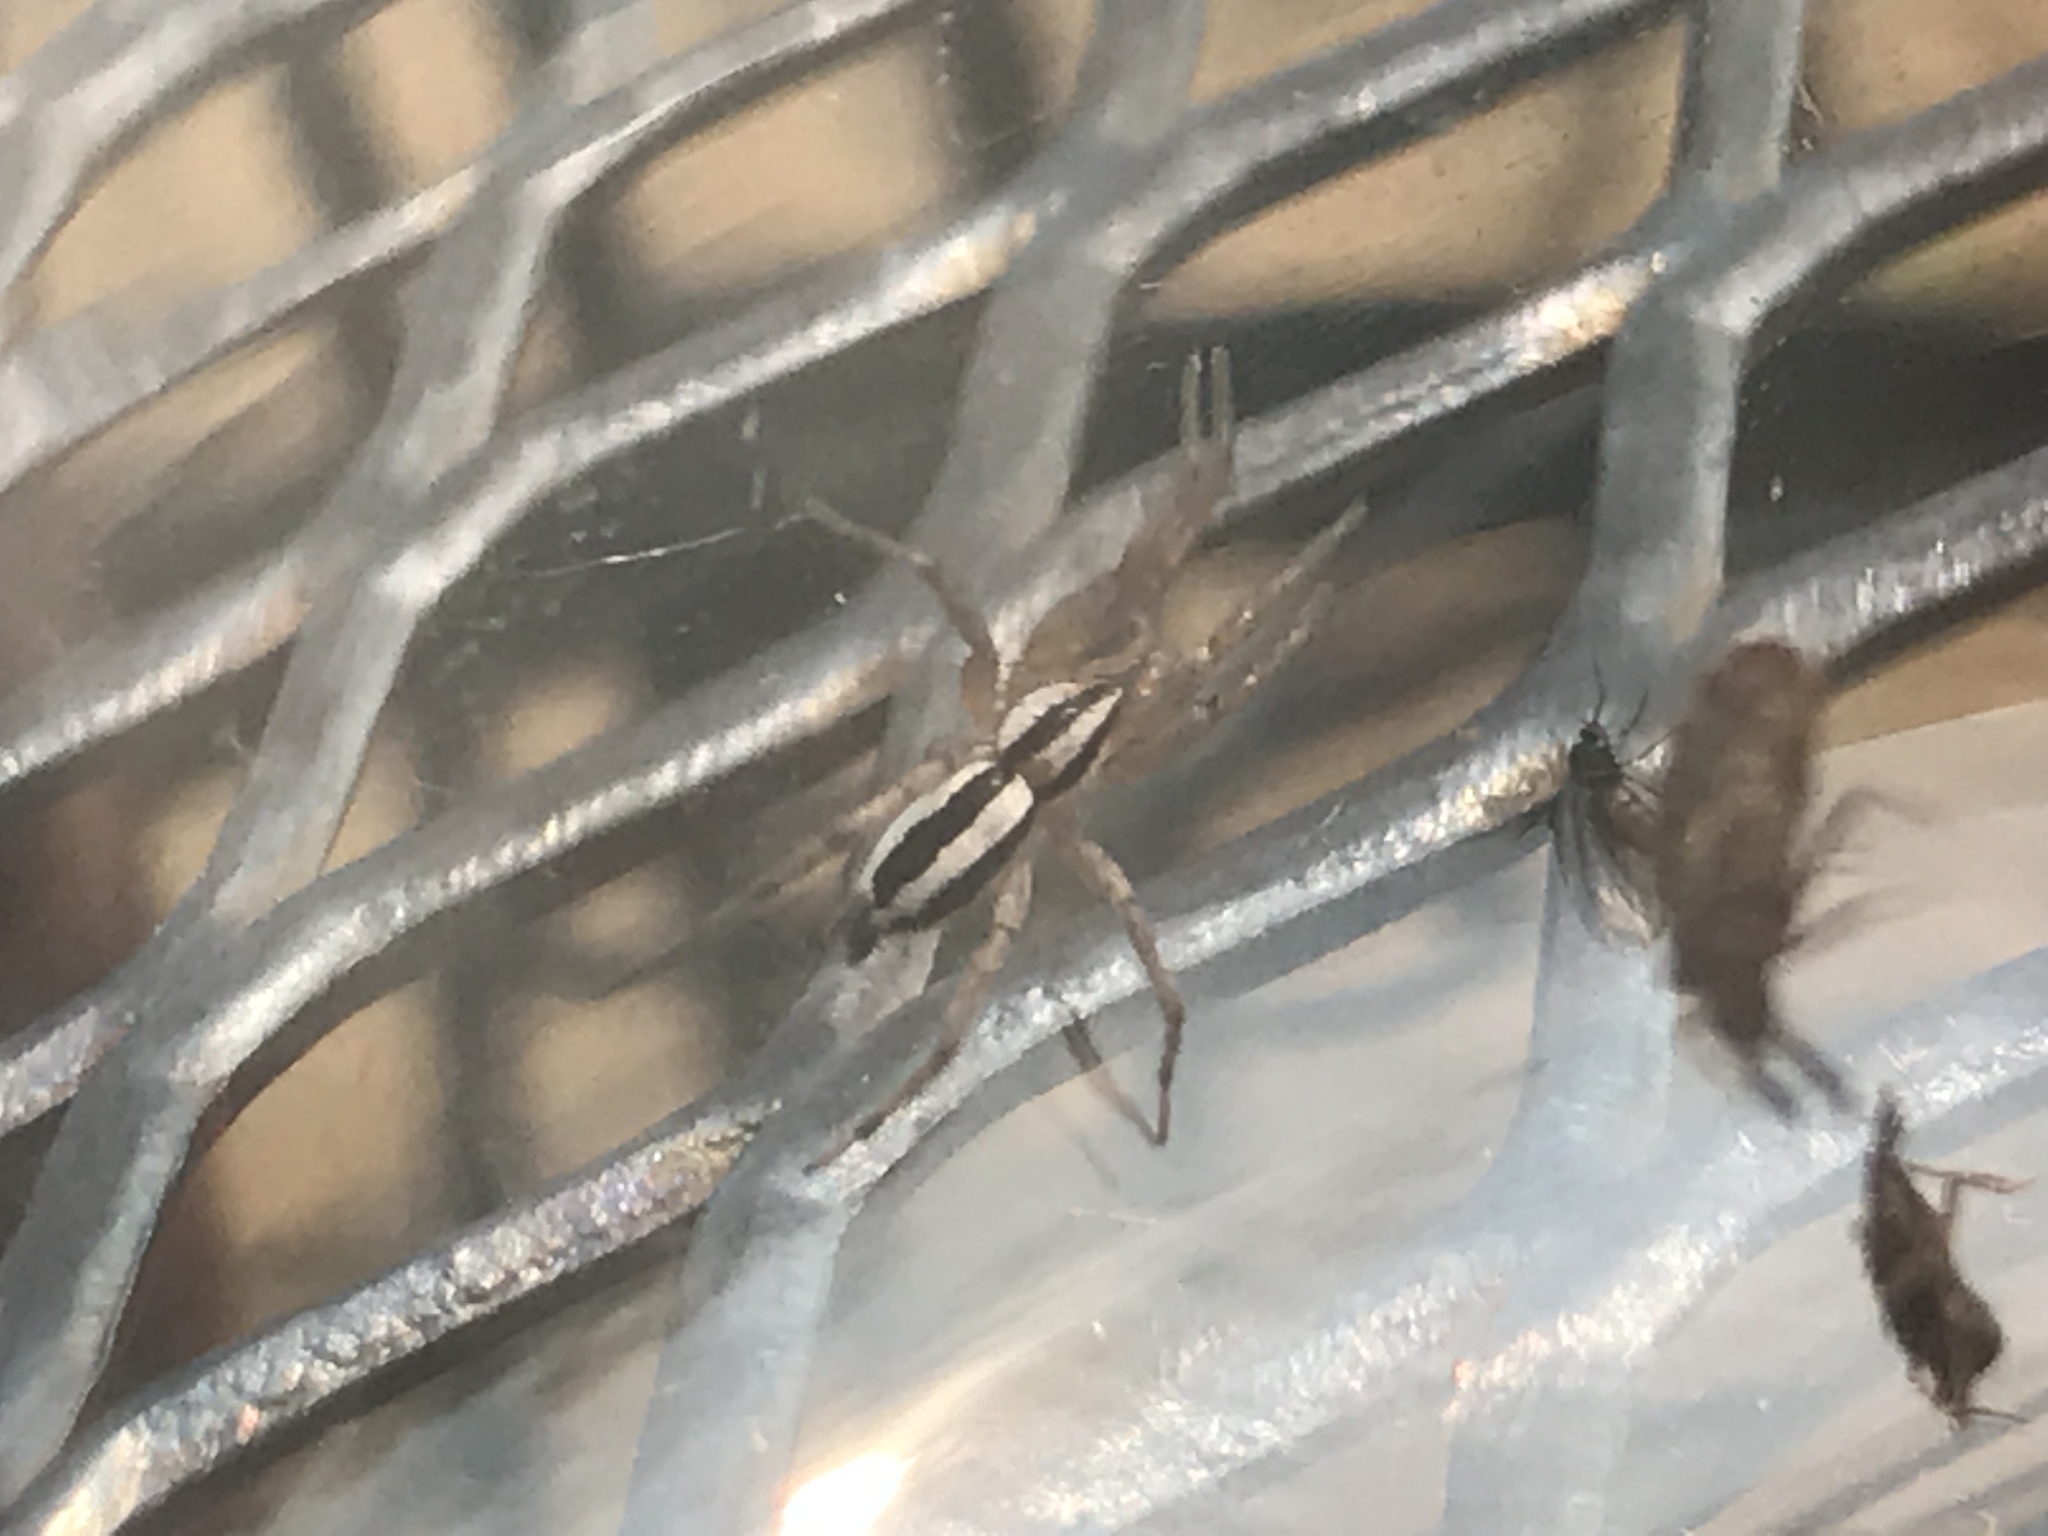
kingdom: Animalia
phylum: Arthropoda
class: Arachnida
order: Araneae
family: Gnaphosidae
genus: Cesonia
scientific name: Cesonia bilineata
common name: Two-lined stealthy ground spider
